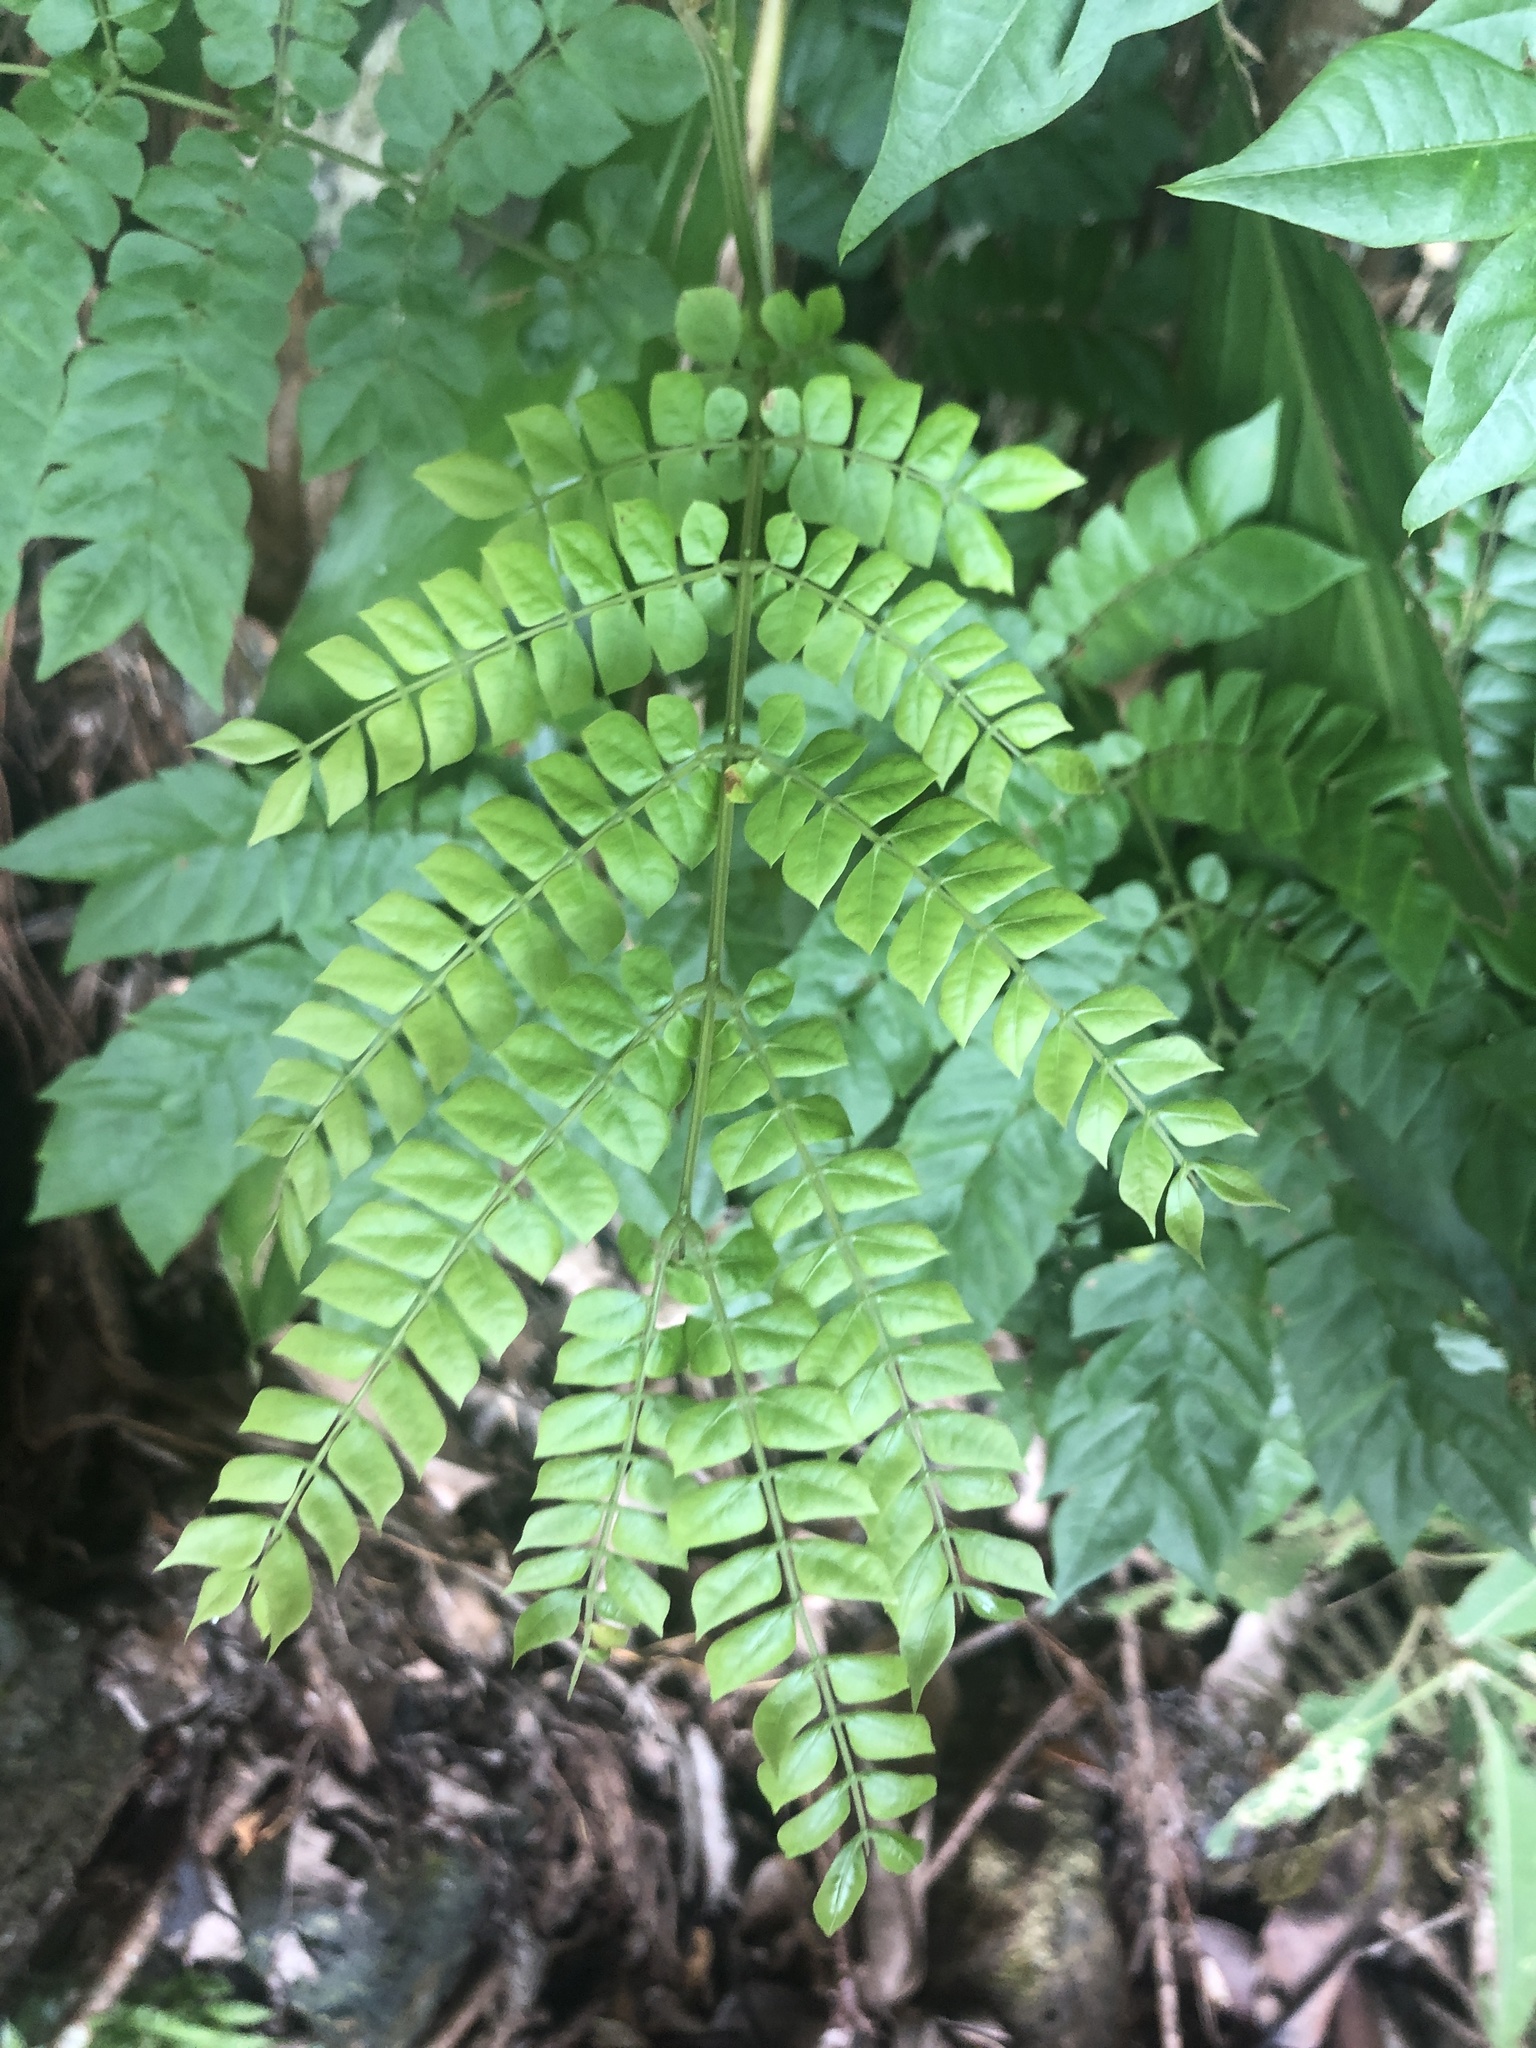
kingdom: Plantae
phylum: Tracheophyta
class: Magnoliopsida
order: Fabales
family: Fabaceae
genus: Archidendron
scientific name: Archidendron clypearia
